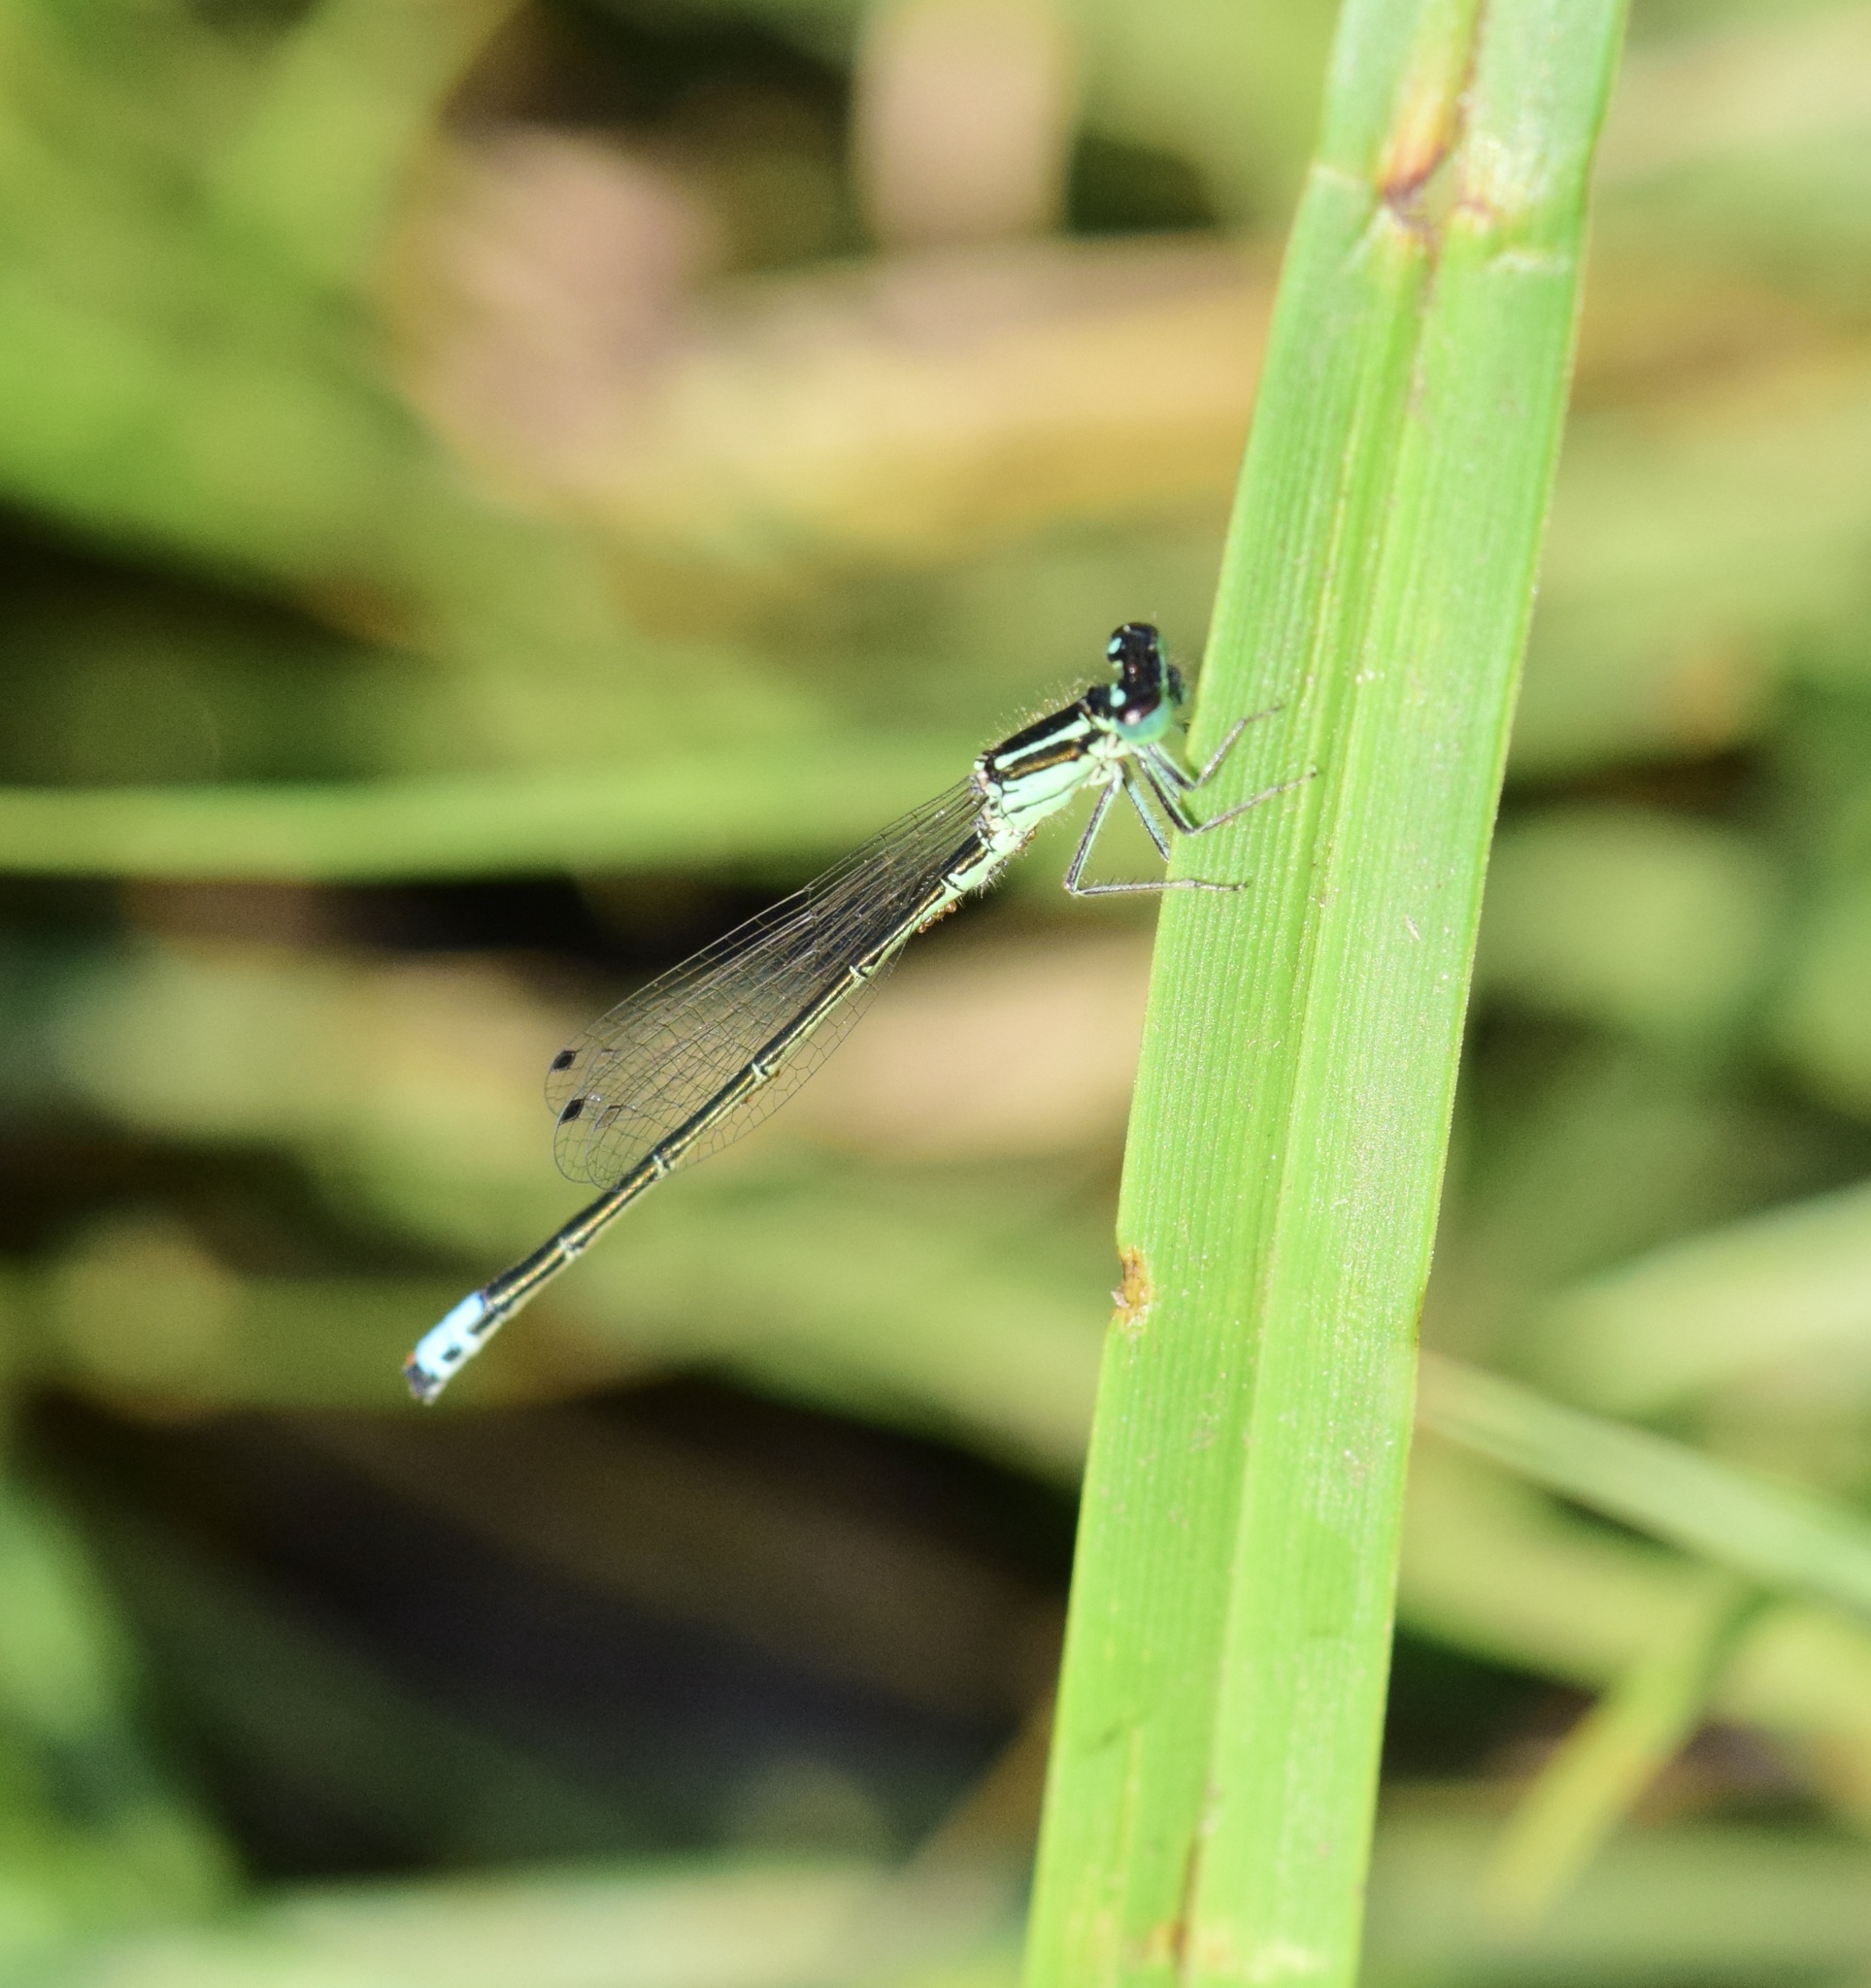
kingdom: Animalia
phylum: Arthropoda
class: Insecta
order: Odonata
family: Coenagrionidae
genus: Ischnura
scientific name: Ischnura verticalis
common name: Eastern forktail
